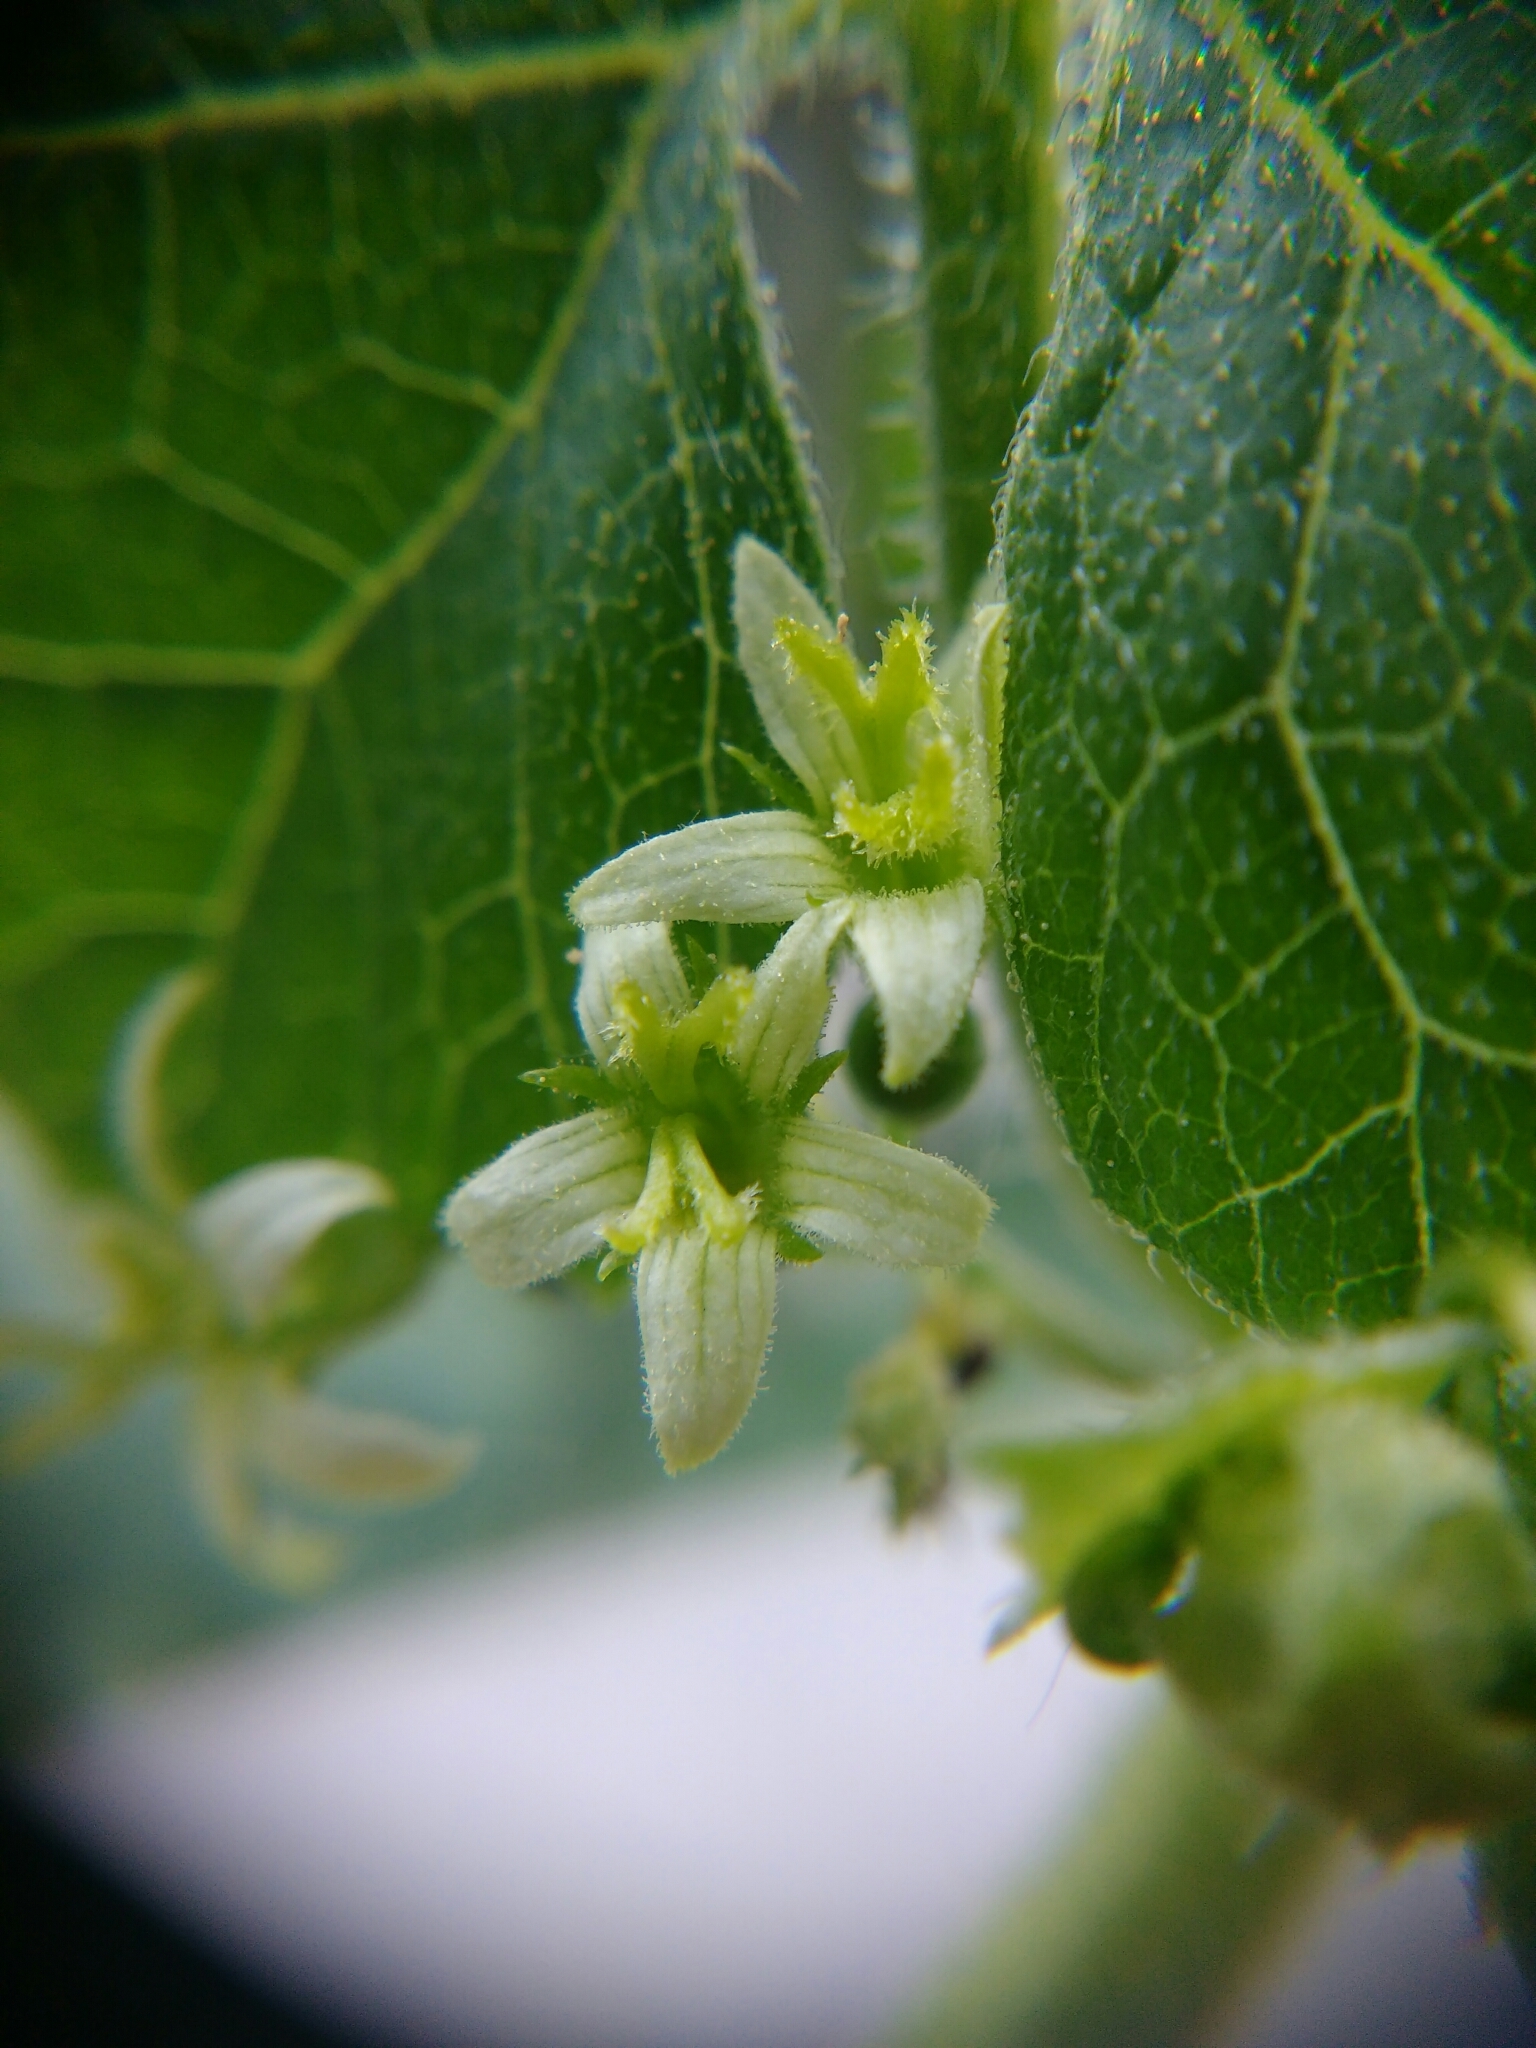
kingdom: Plantae
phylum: Tracheophyta
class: Magnoliopsida
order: Cucurbitales
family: Cucurbitaceae
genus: Bryonia
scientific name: Bryonia dioica
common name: White bryony
